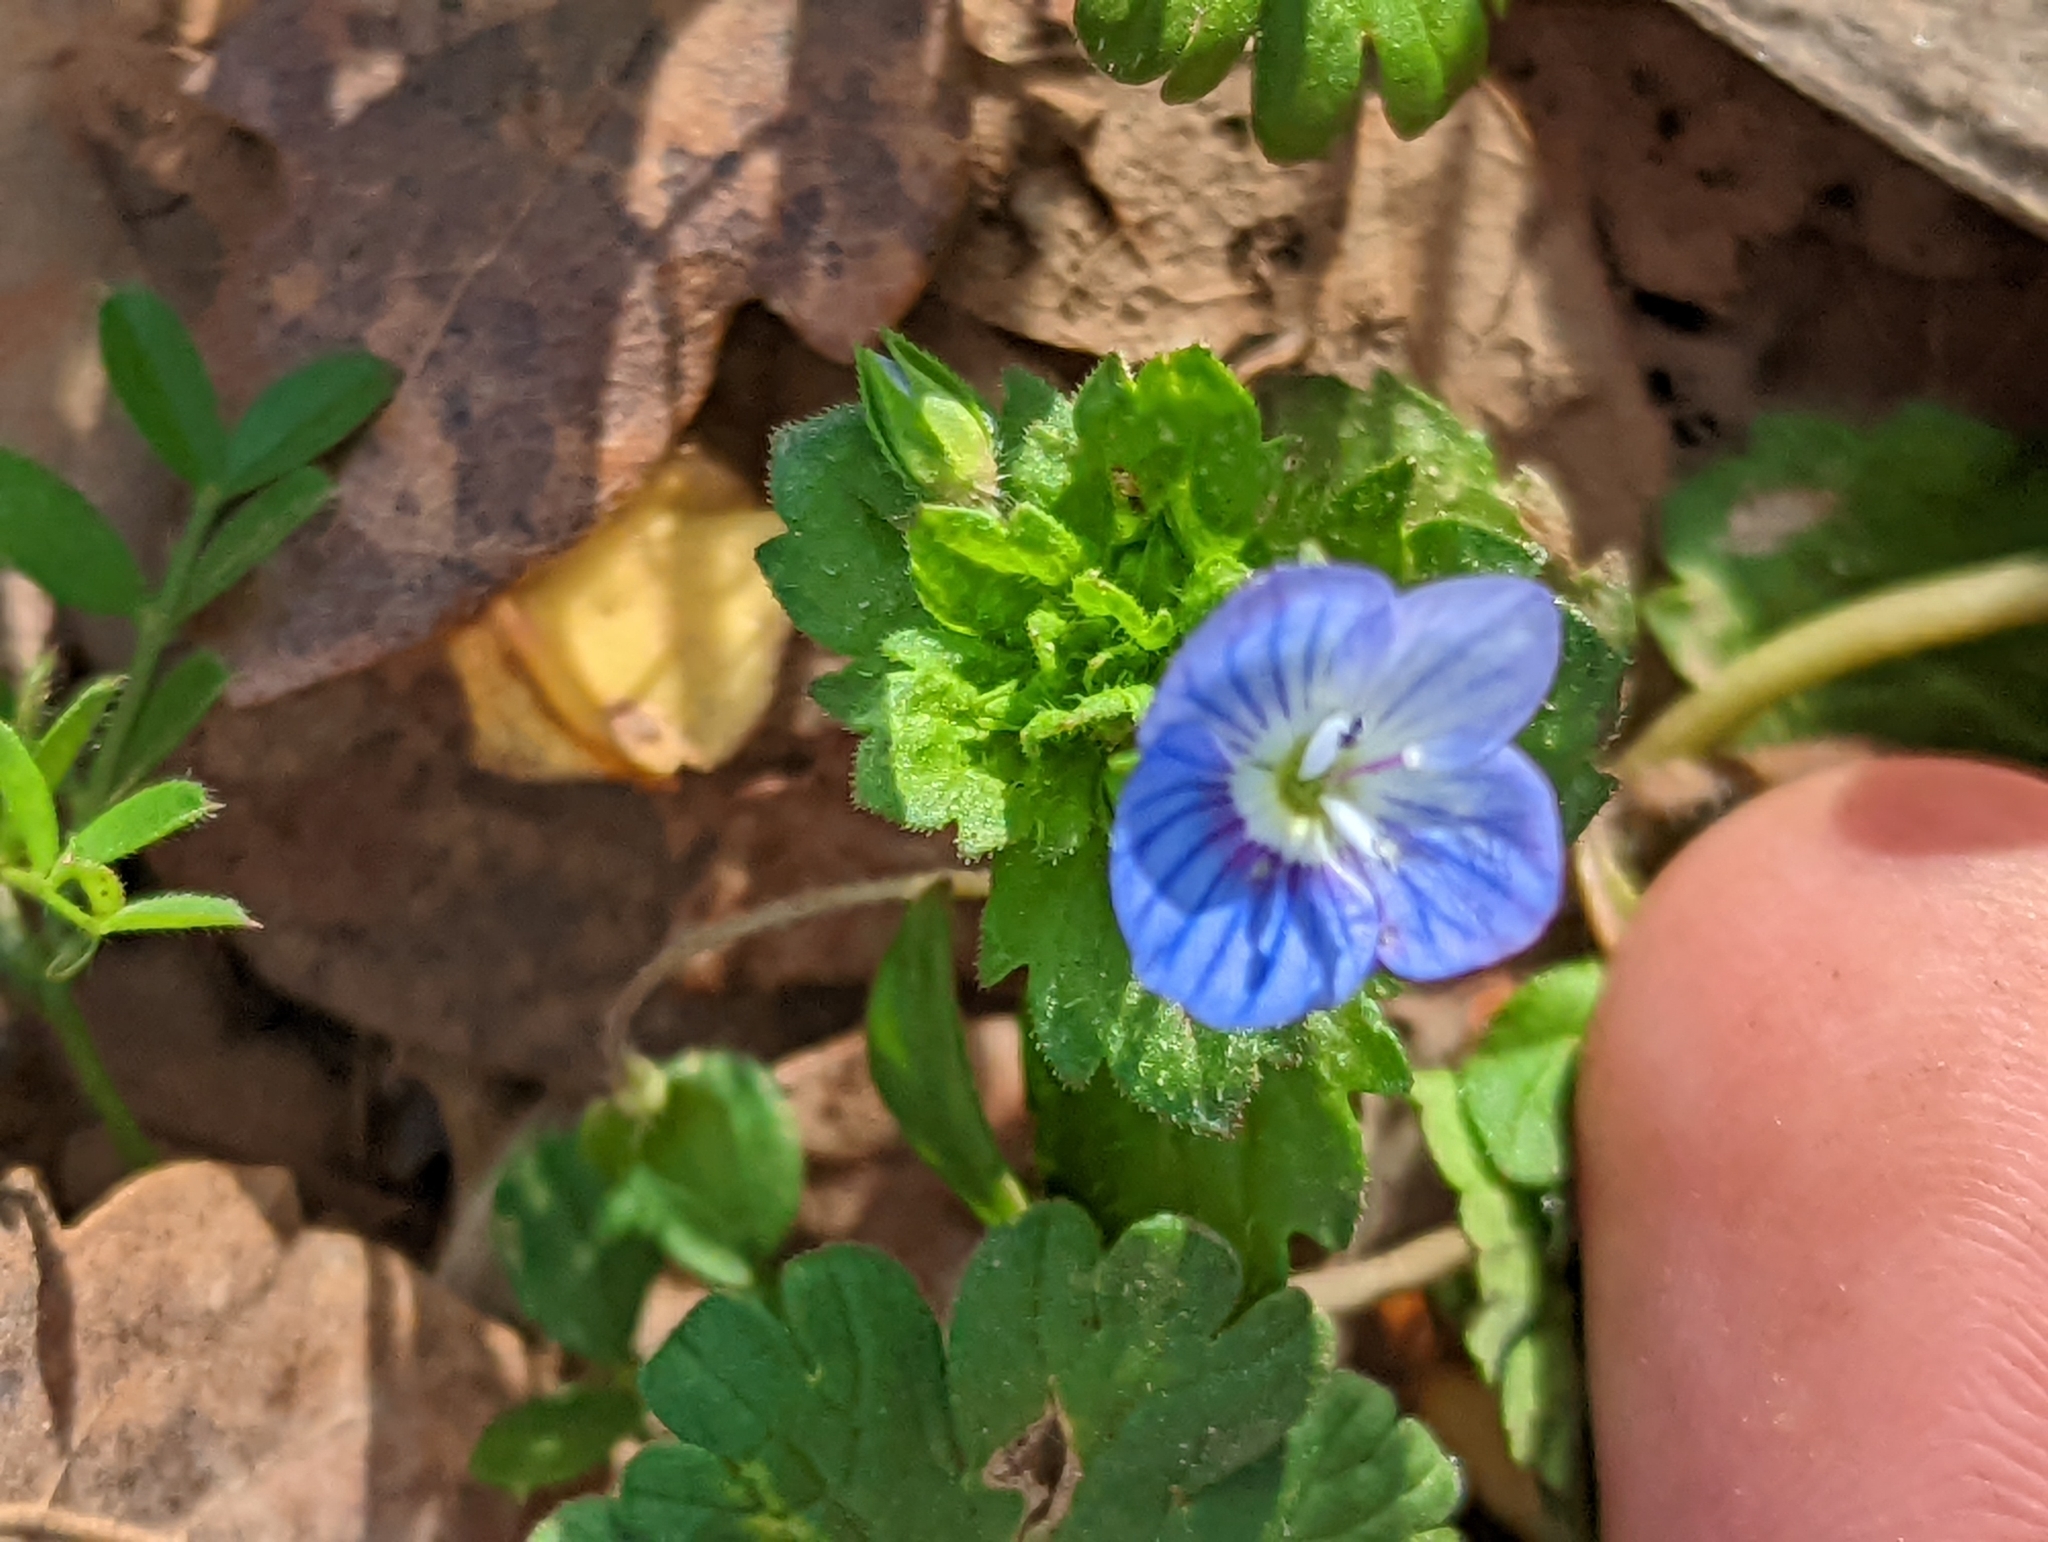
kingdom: Plantae
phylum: Tracheophyta
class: Magnoliopsida
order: Lamiales
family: Plantaginaceae
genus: Veronica
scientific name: Veronica persica
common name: Common field-speedwell
